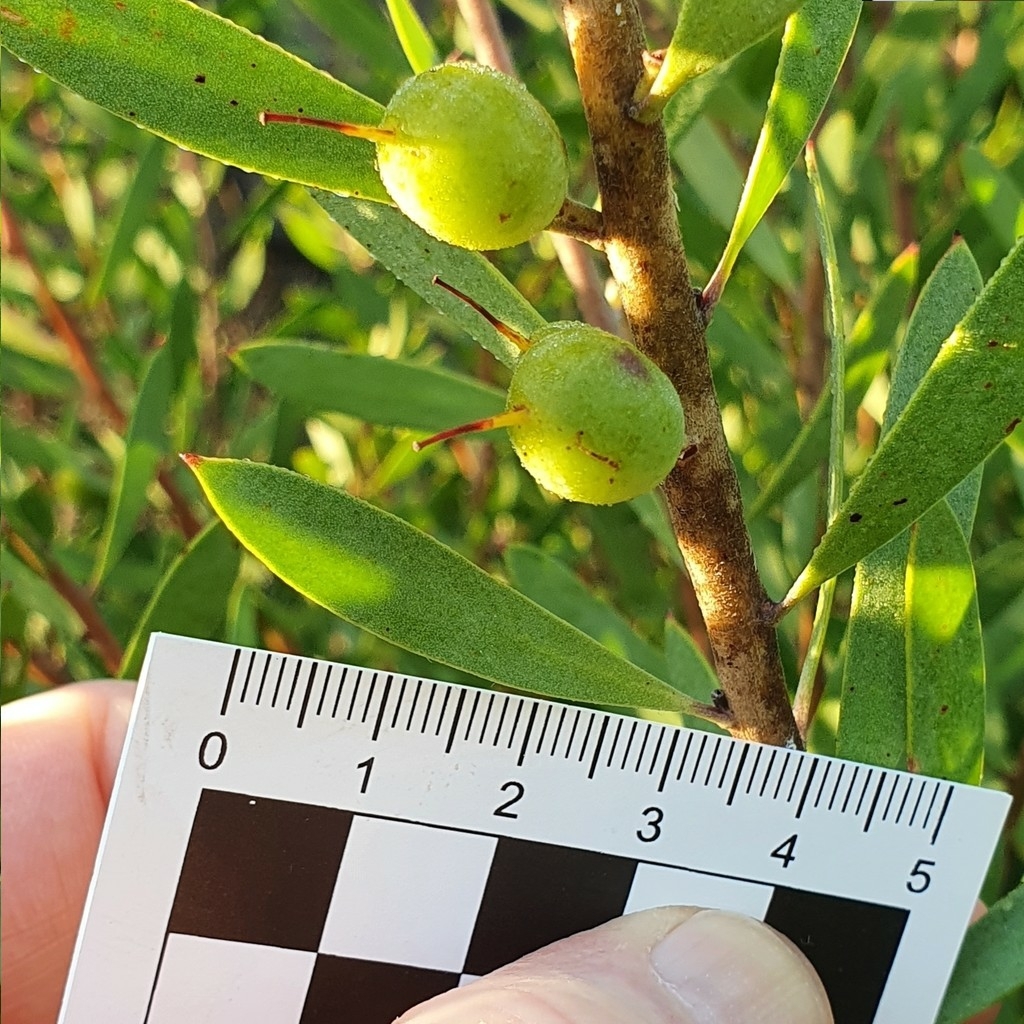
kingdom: Plantae
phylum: Tracheophyta
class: Magnoliopsida
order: Proteales
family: Proteaceae
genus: Persoonia
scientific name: Persoonia lanceolata
